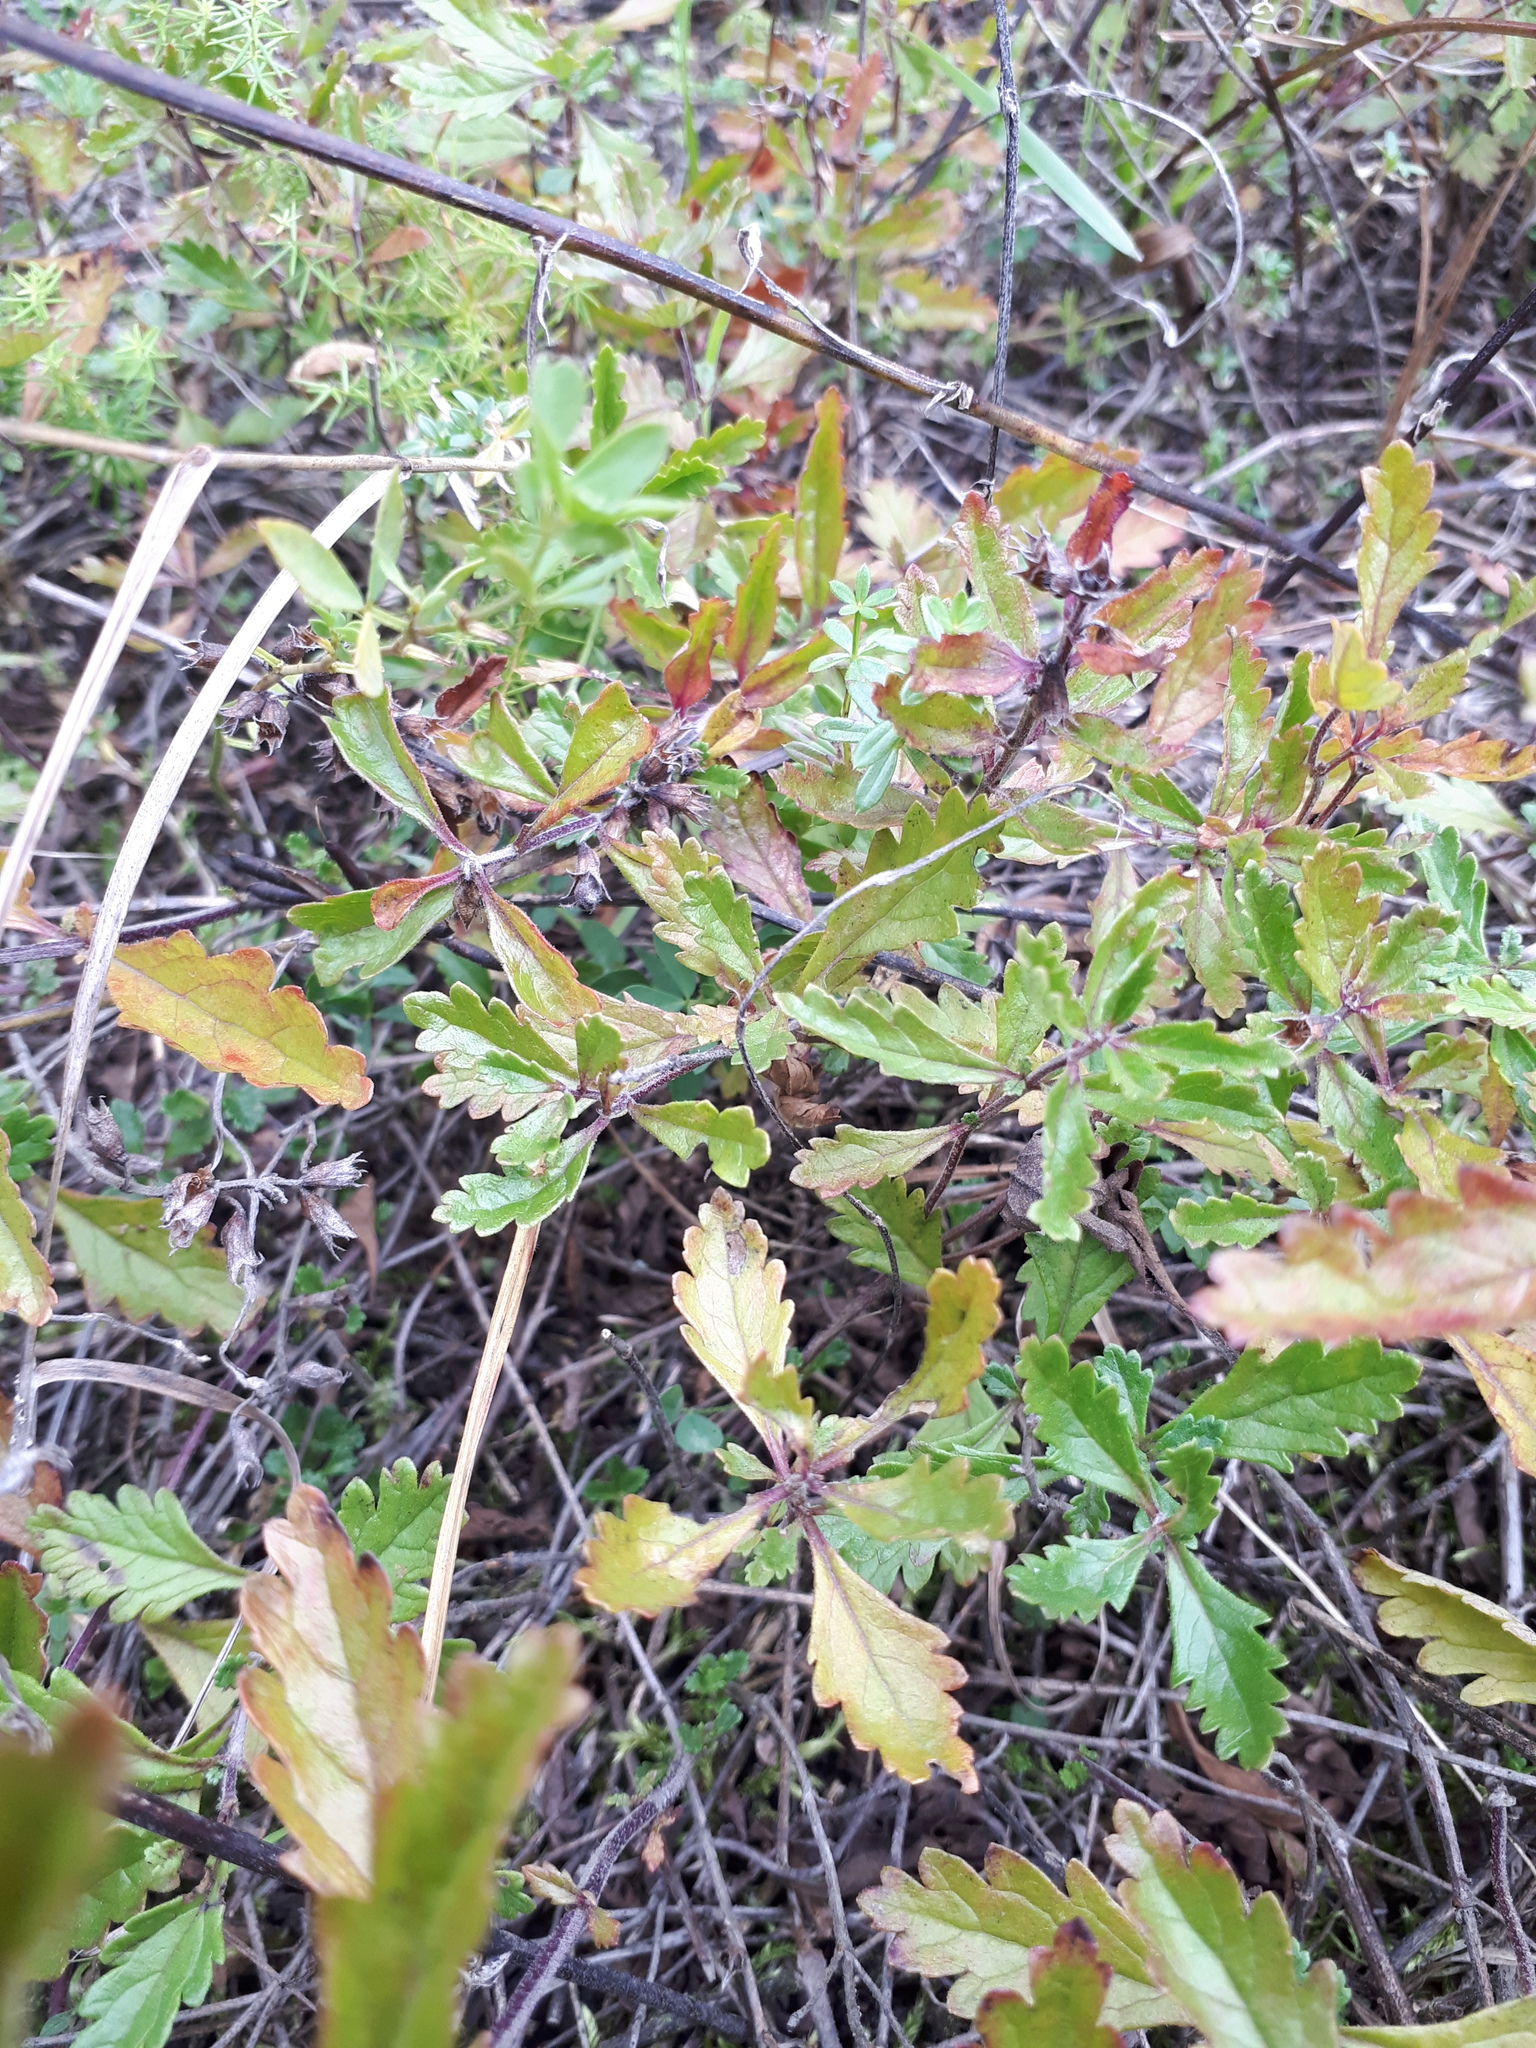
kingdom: Plantae
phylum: Tracheophyta
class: Magnoliopsida
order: Lamiales
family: Lamiaceae
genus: Teucrium
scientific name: Teucrium chamaedrys
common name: Wall germander
